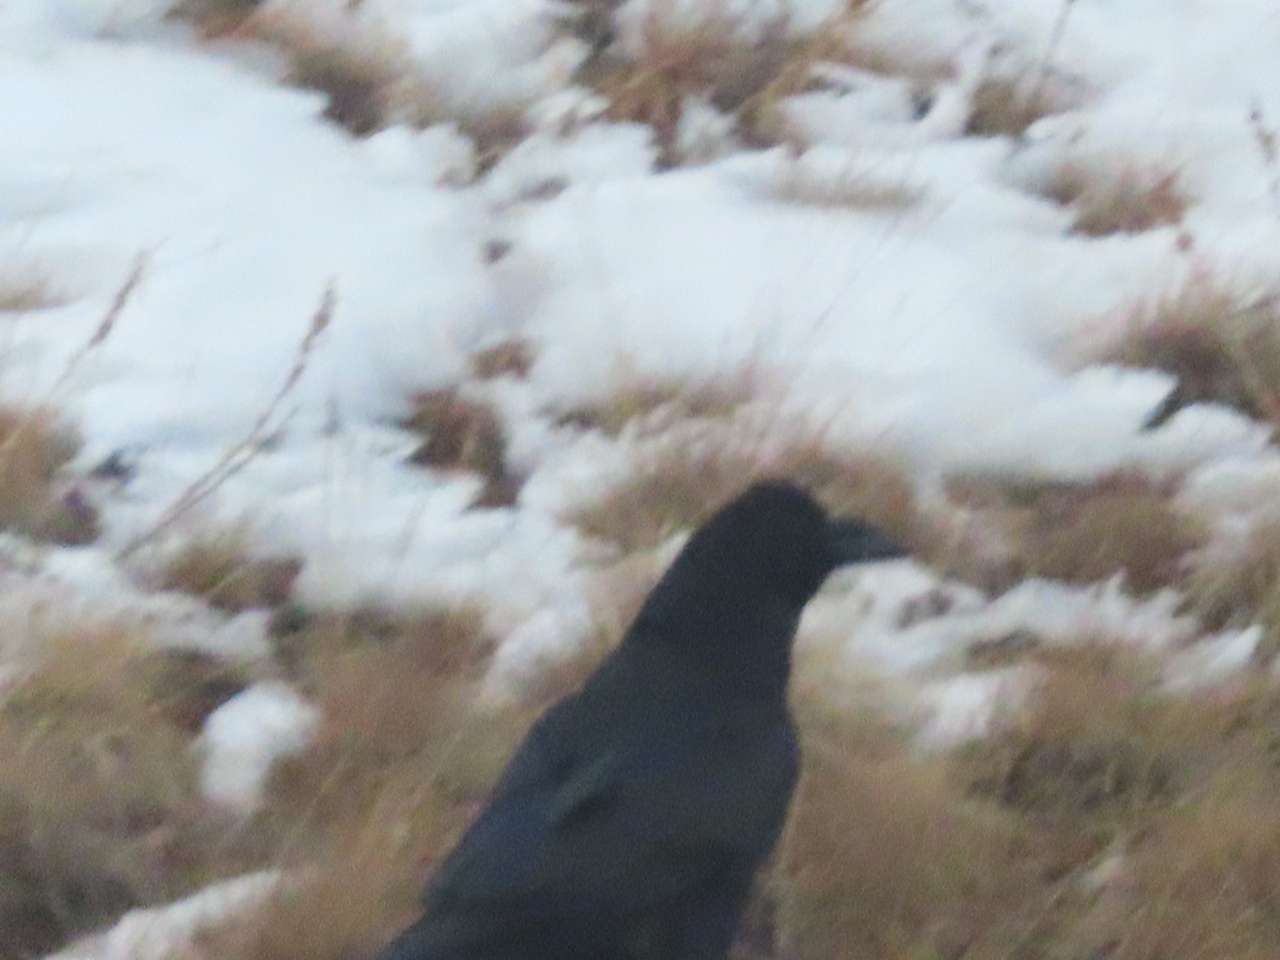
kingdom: Animalia
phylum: Chordata
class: Aves
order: Passeriformes
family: Corvidae
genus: Corvus
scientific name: Corvus corax
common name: Common raven
